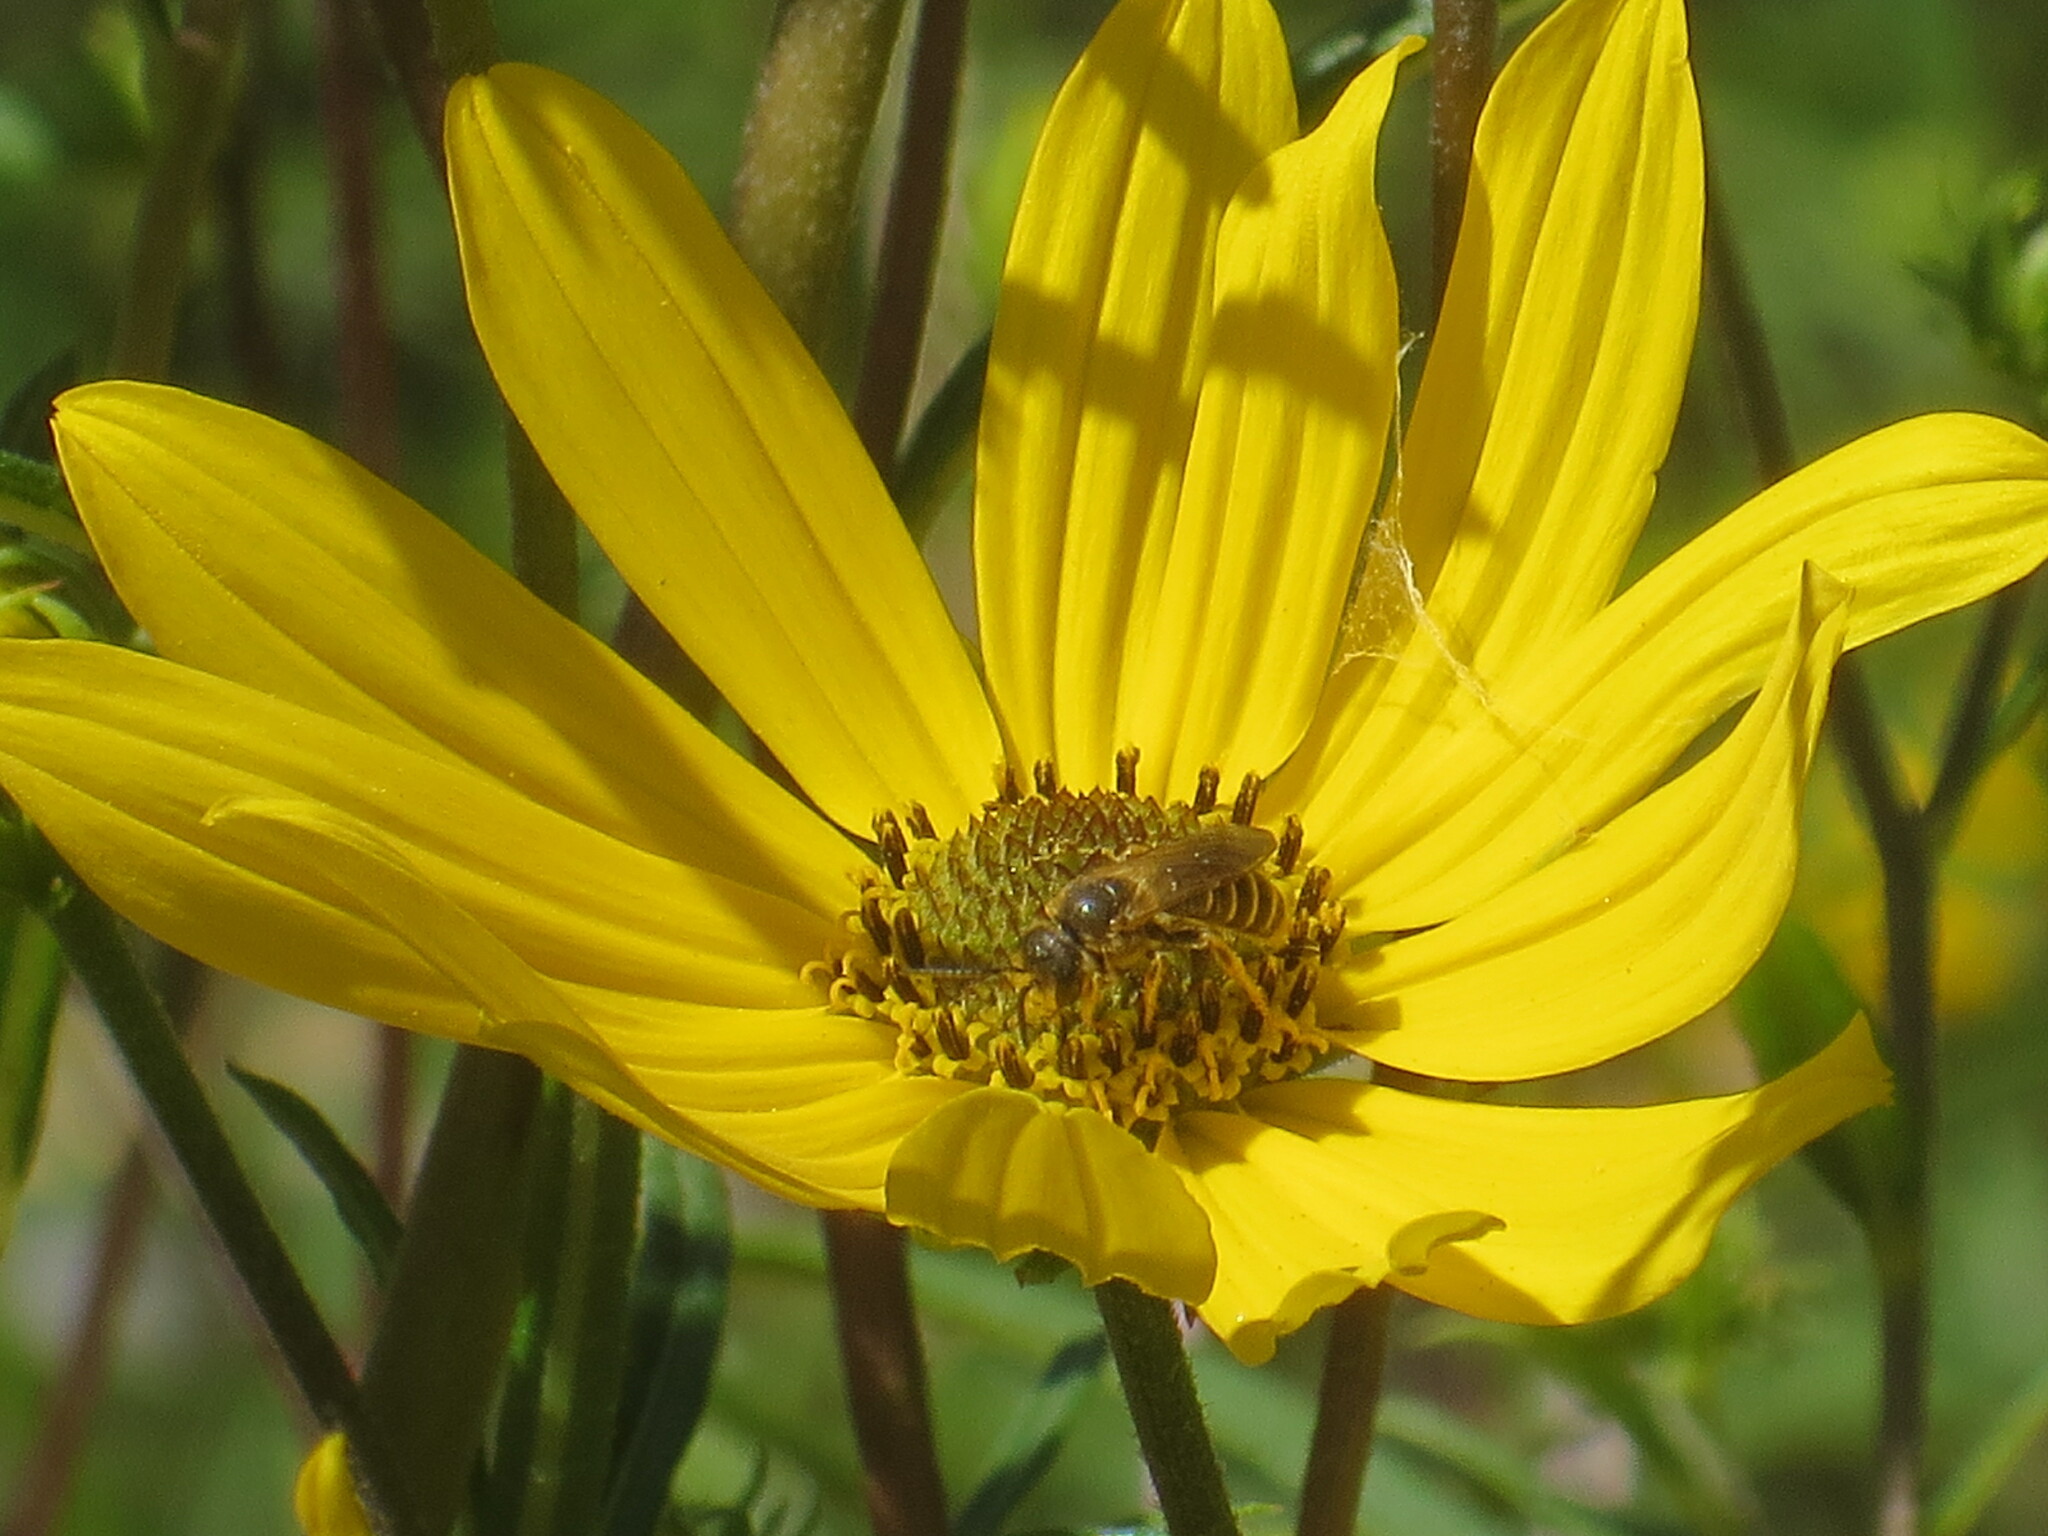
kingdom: Animalia
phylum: Arthropoda
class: Insecta
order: Hymenoptera
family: Halictidae
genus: Halictus
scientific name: Halictus poeyi
